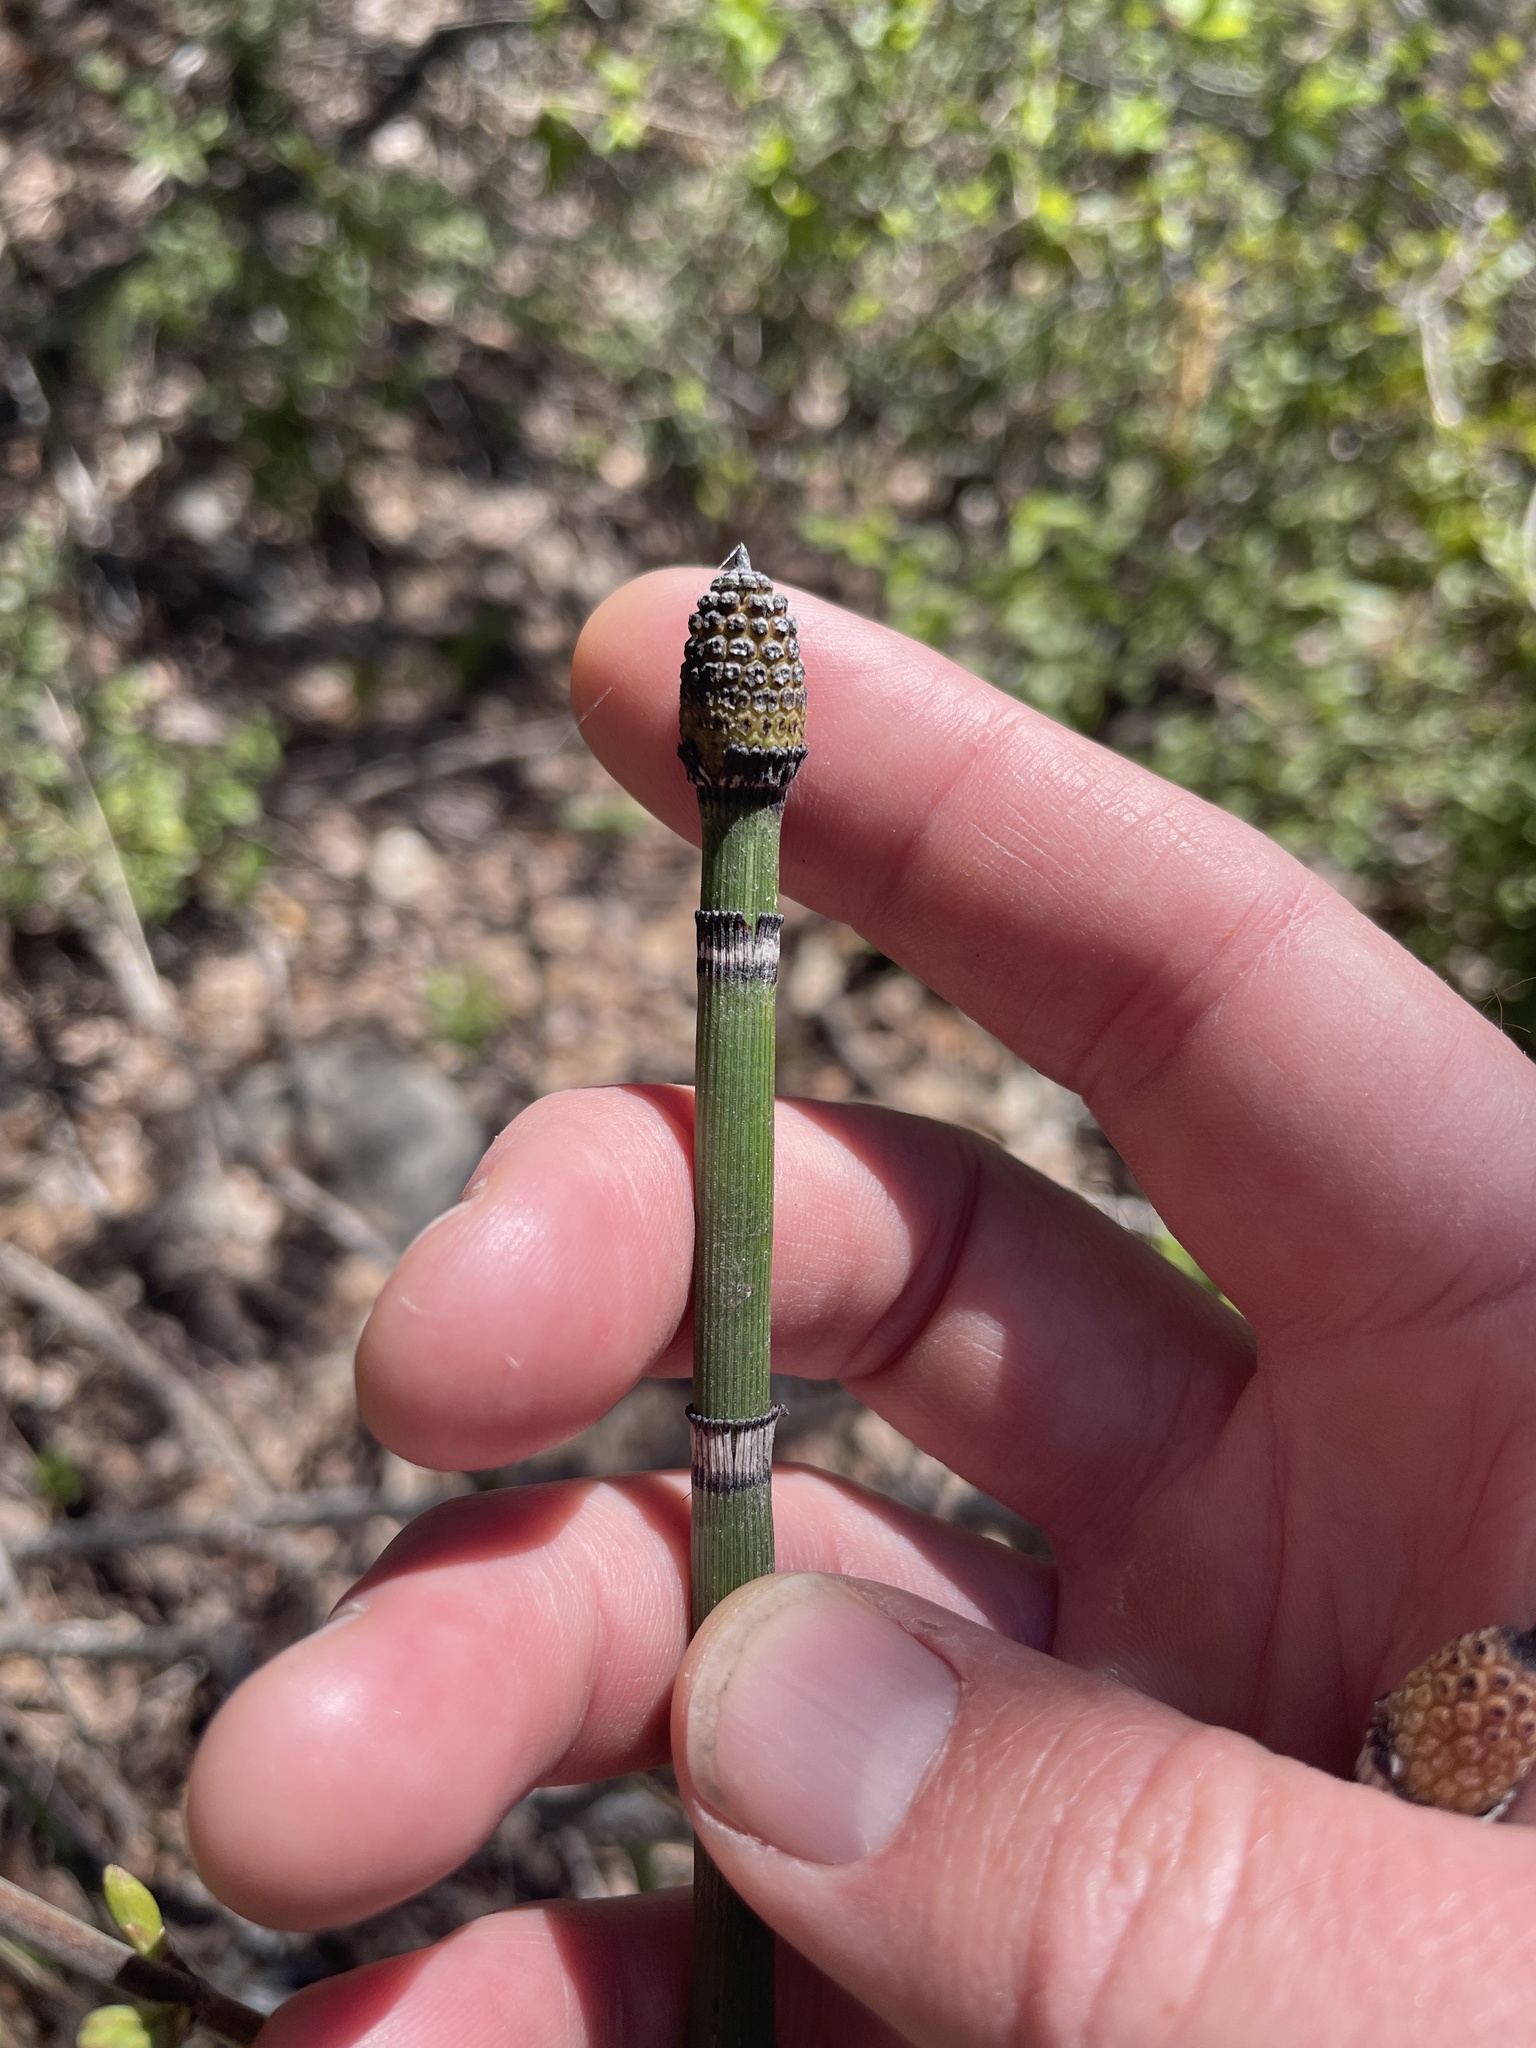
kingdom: Plantae
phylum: Tracheophyta
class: Polypodiopsida
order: Equisetales
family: Equisetaceae
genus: Equisetum
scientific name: Equisetum hyemale
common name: Rough horsetail
